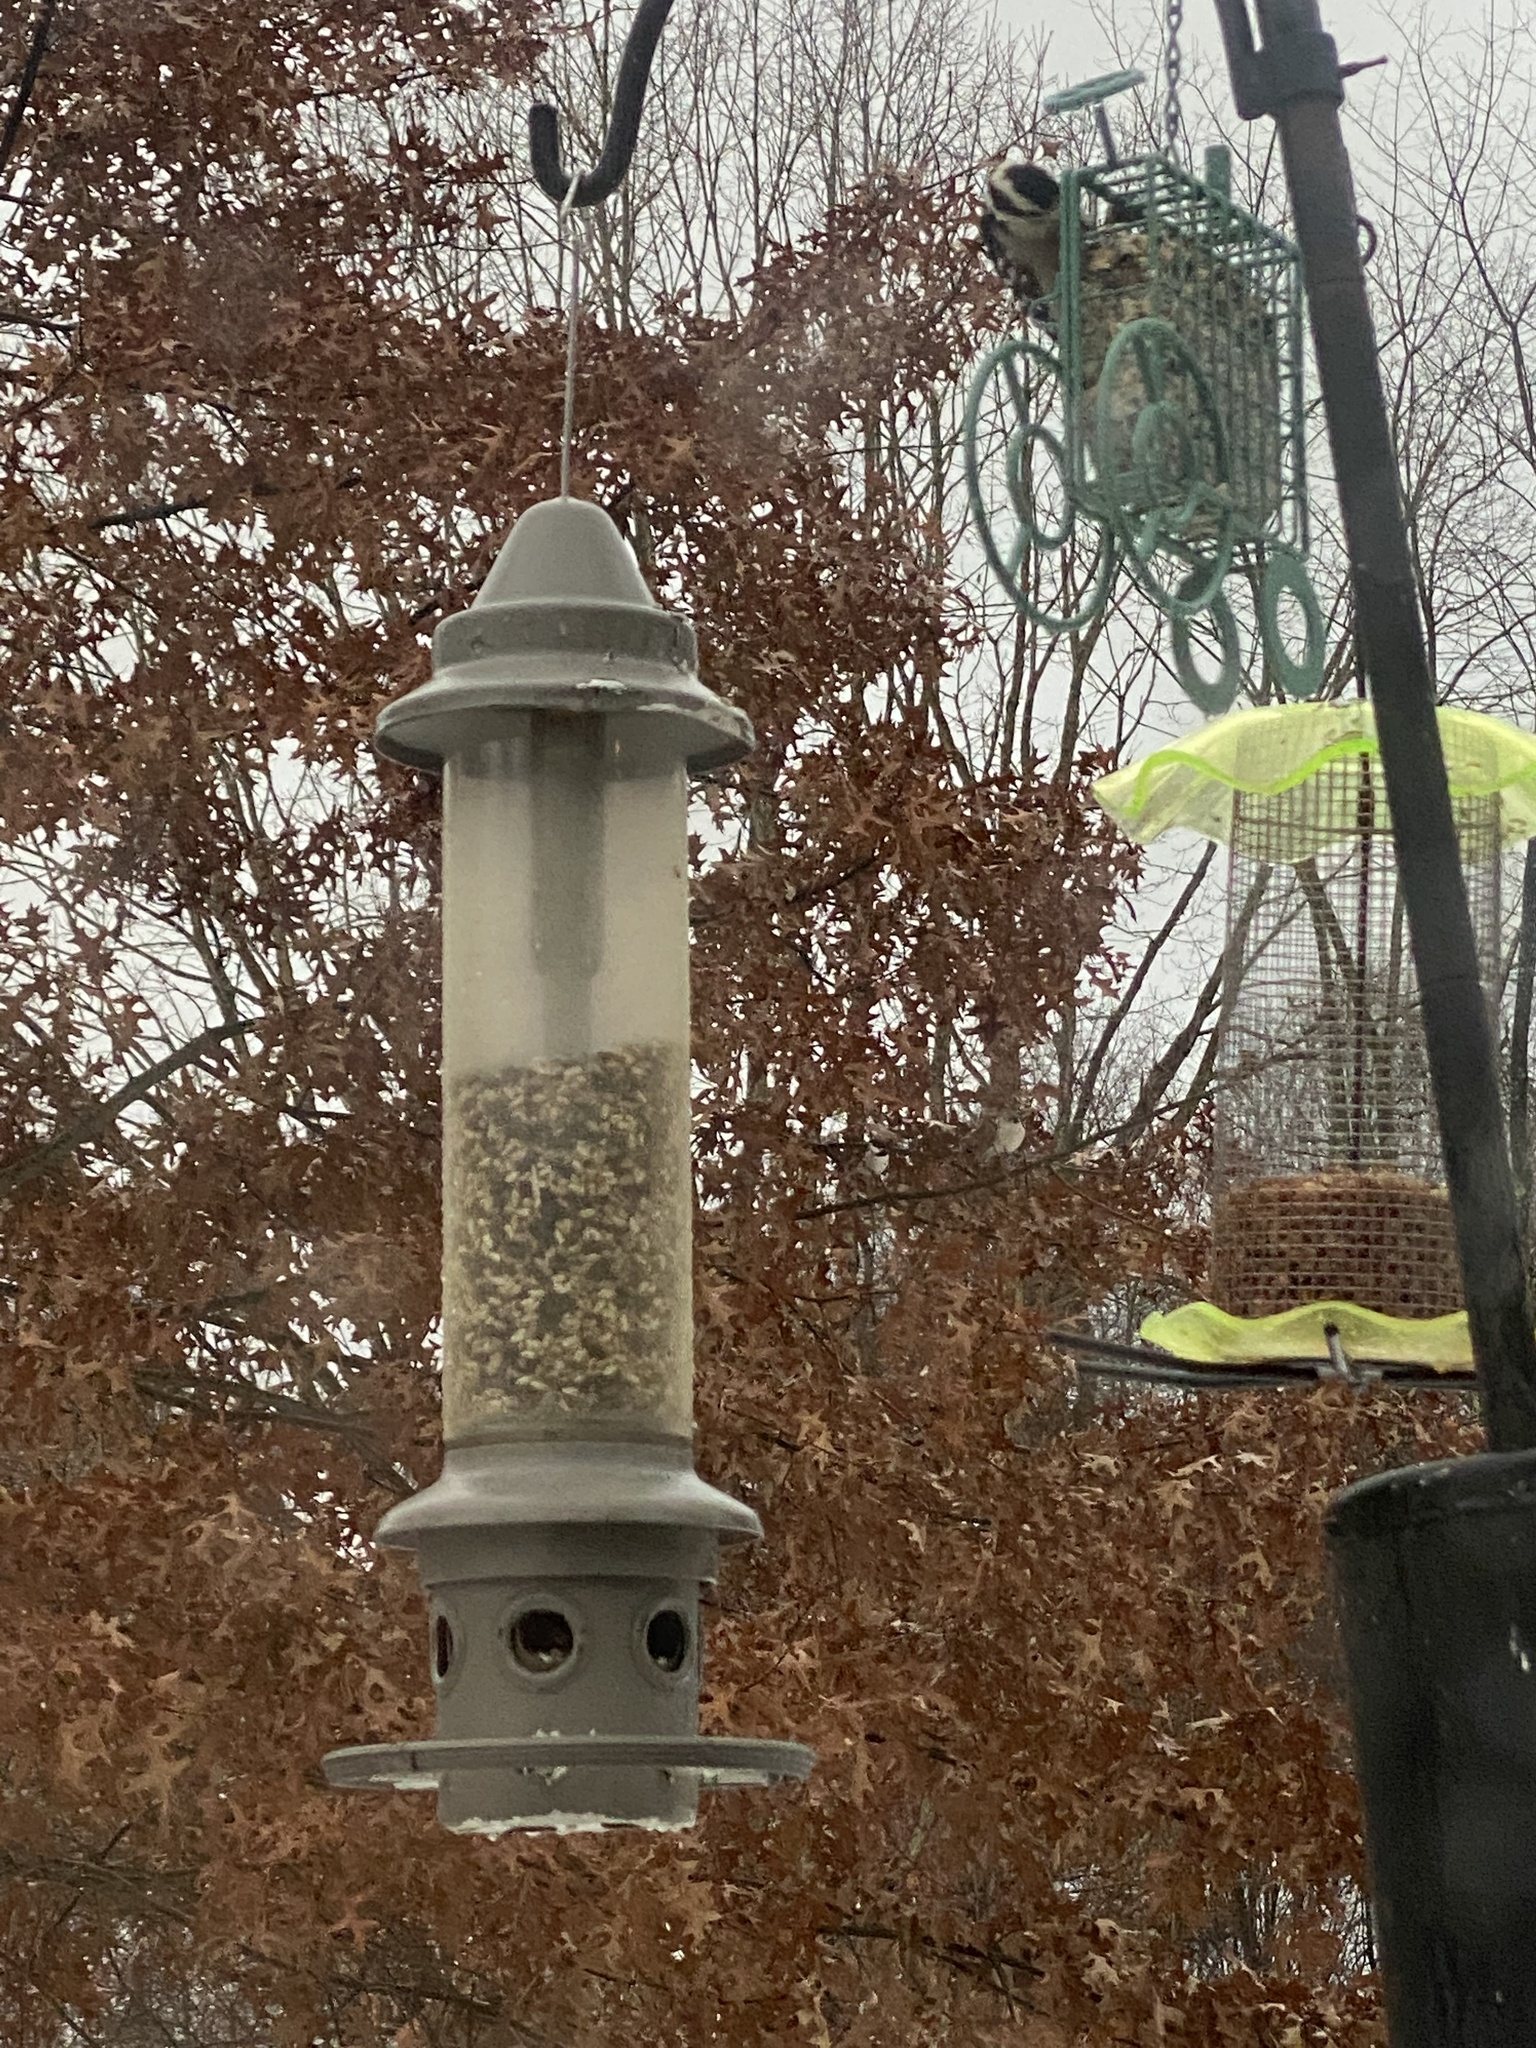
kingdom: Animalia
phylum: Chordata
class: Aves
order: Piciformes
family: Picidae
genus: Dryobates
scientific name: Dryobates pubescens
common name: Downy woodpecker
